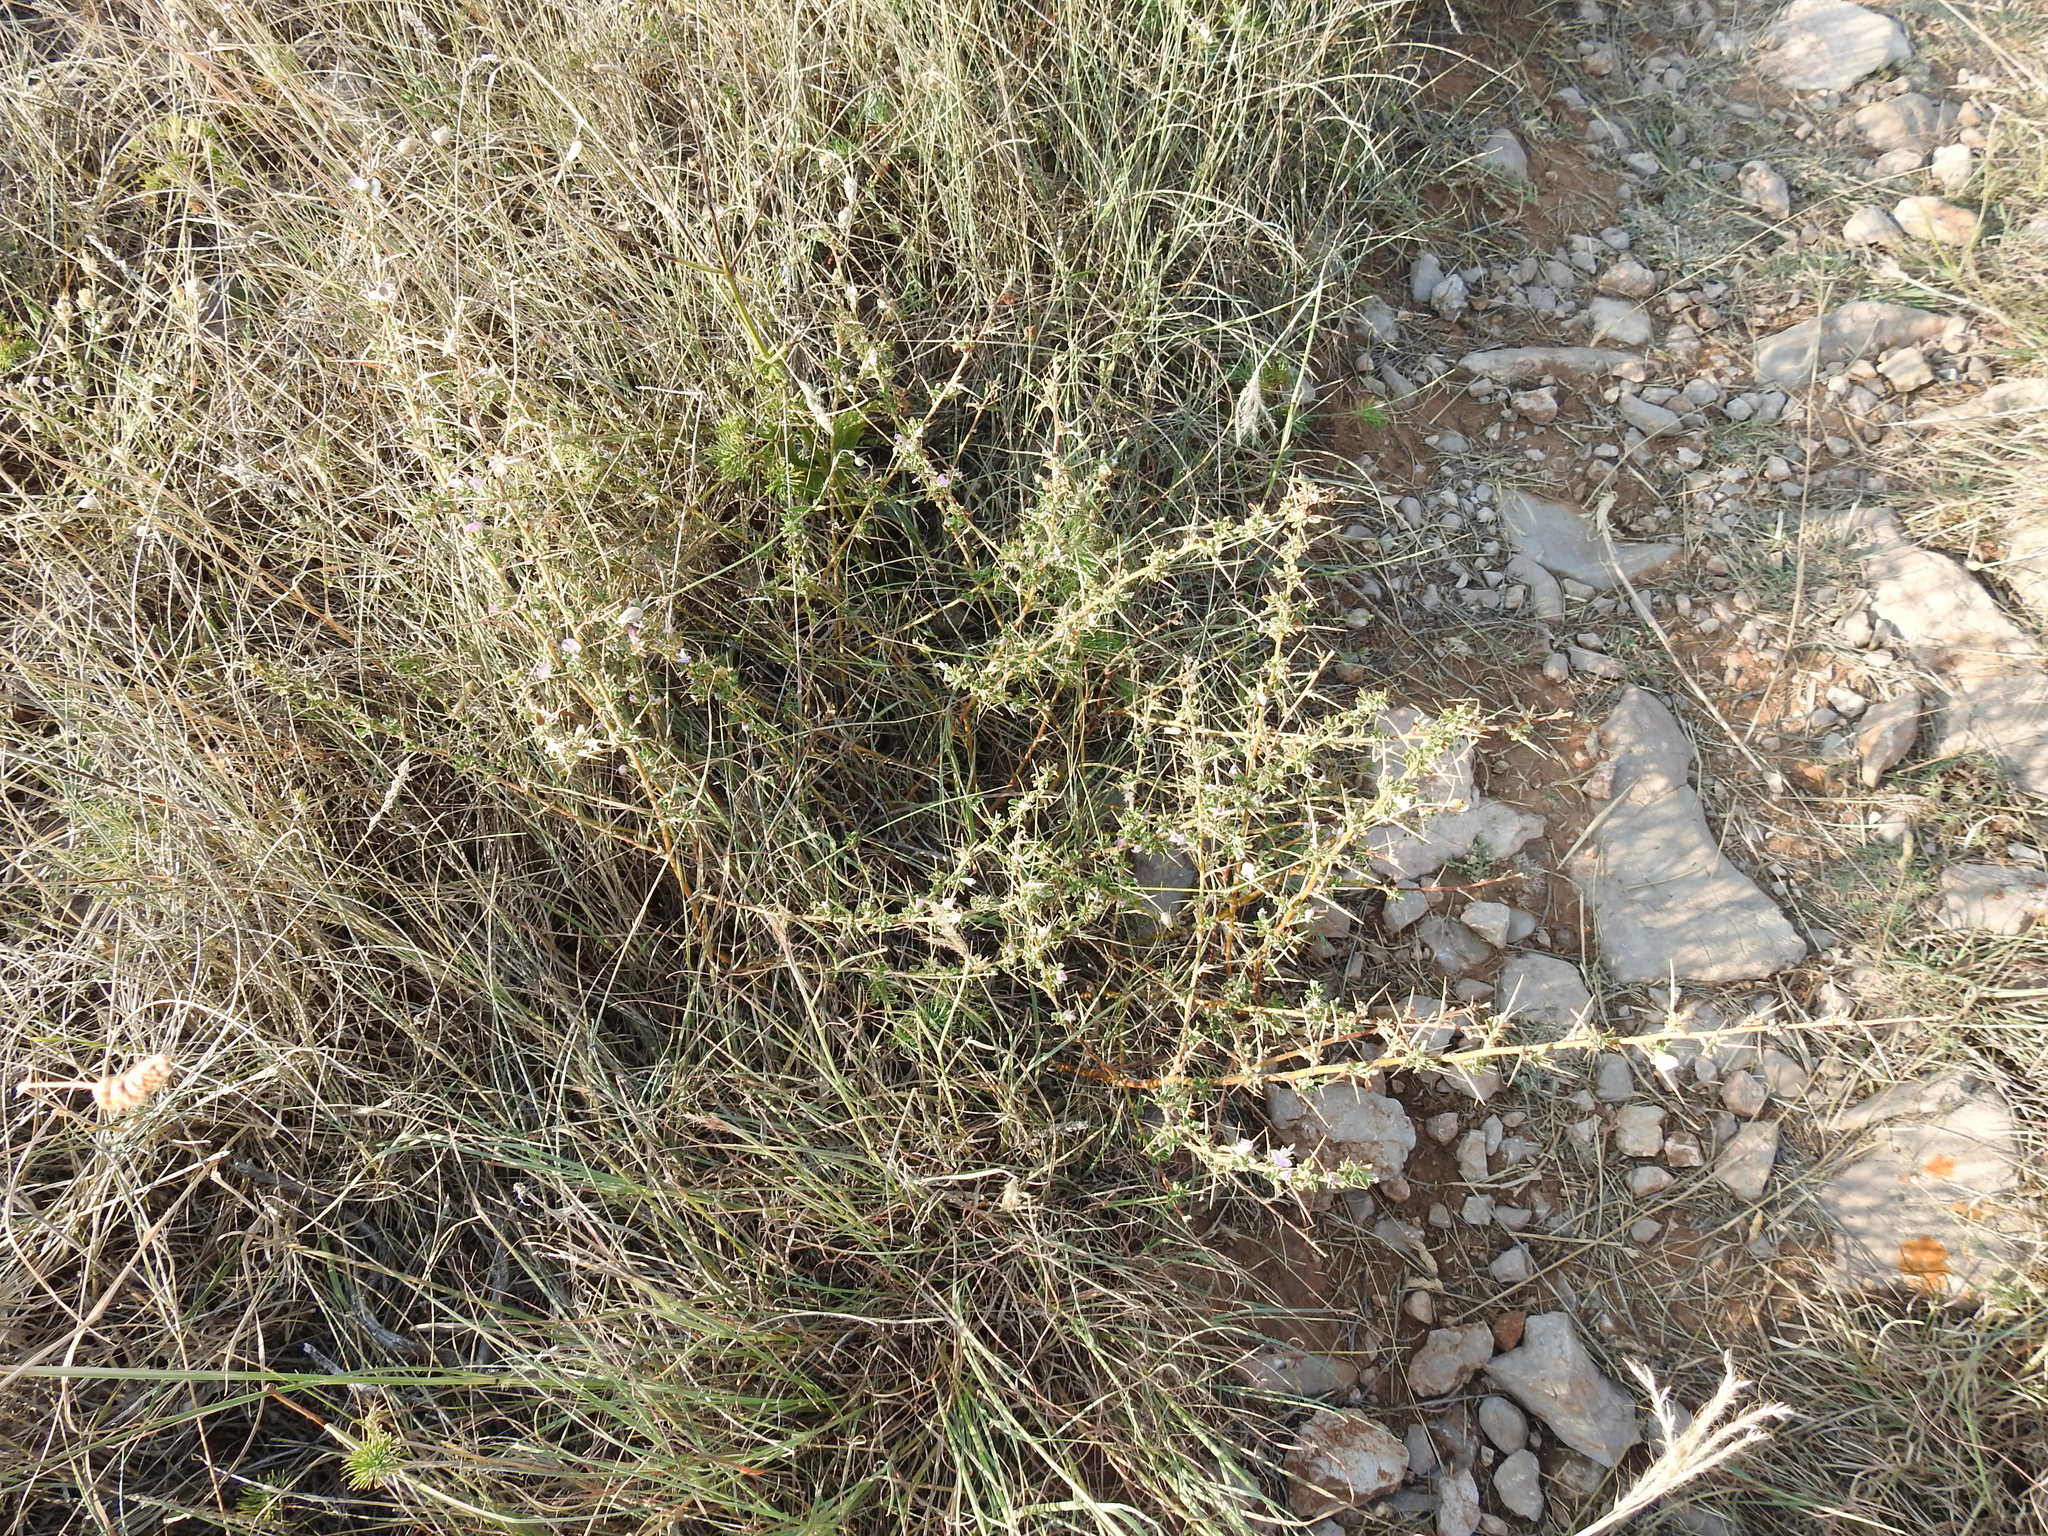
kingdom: Plantae
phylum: Tracheophyta
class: Magnoliopsida
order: Fabales
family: Fabaceae
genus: Ononis
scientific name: Ononis spinosa
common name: Spiny restharrow
